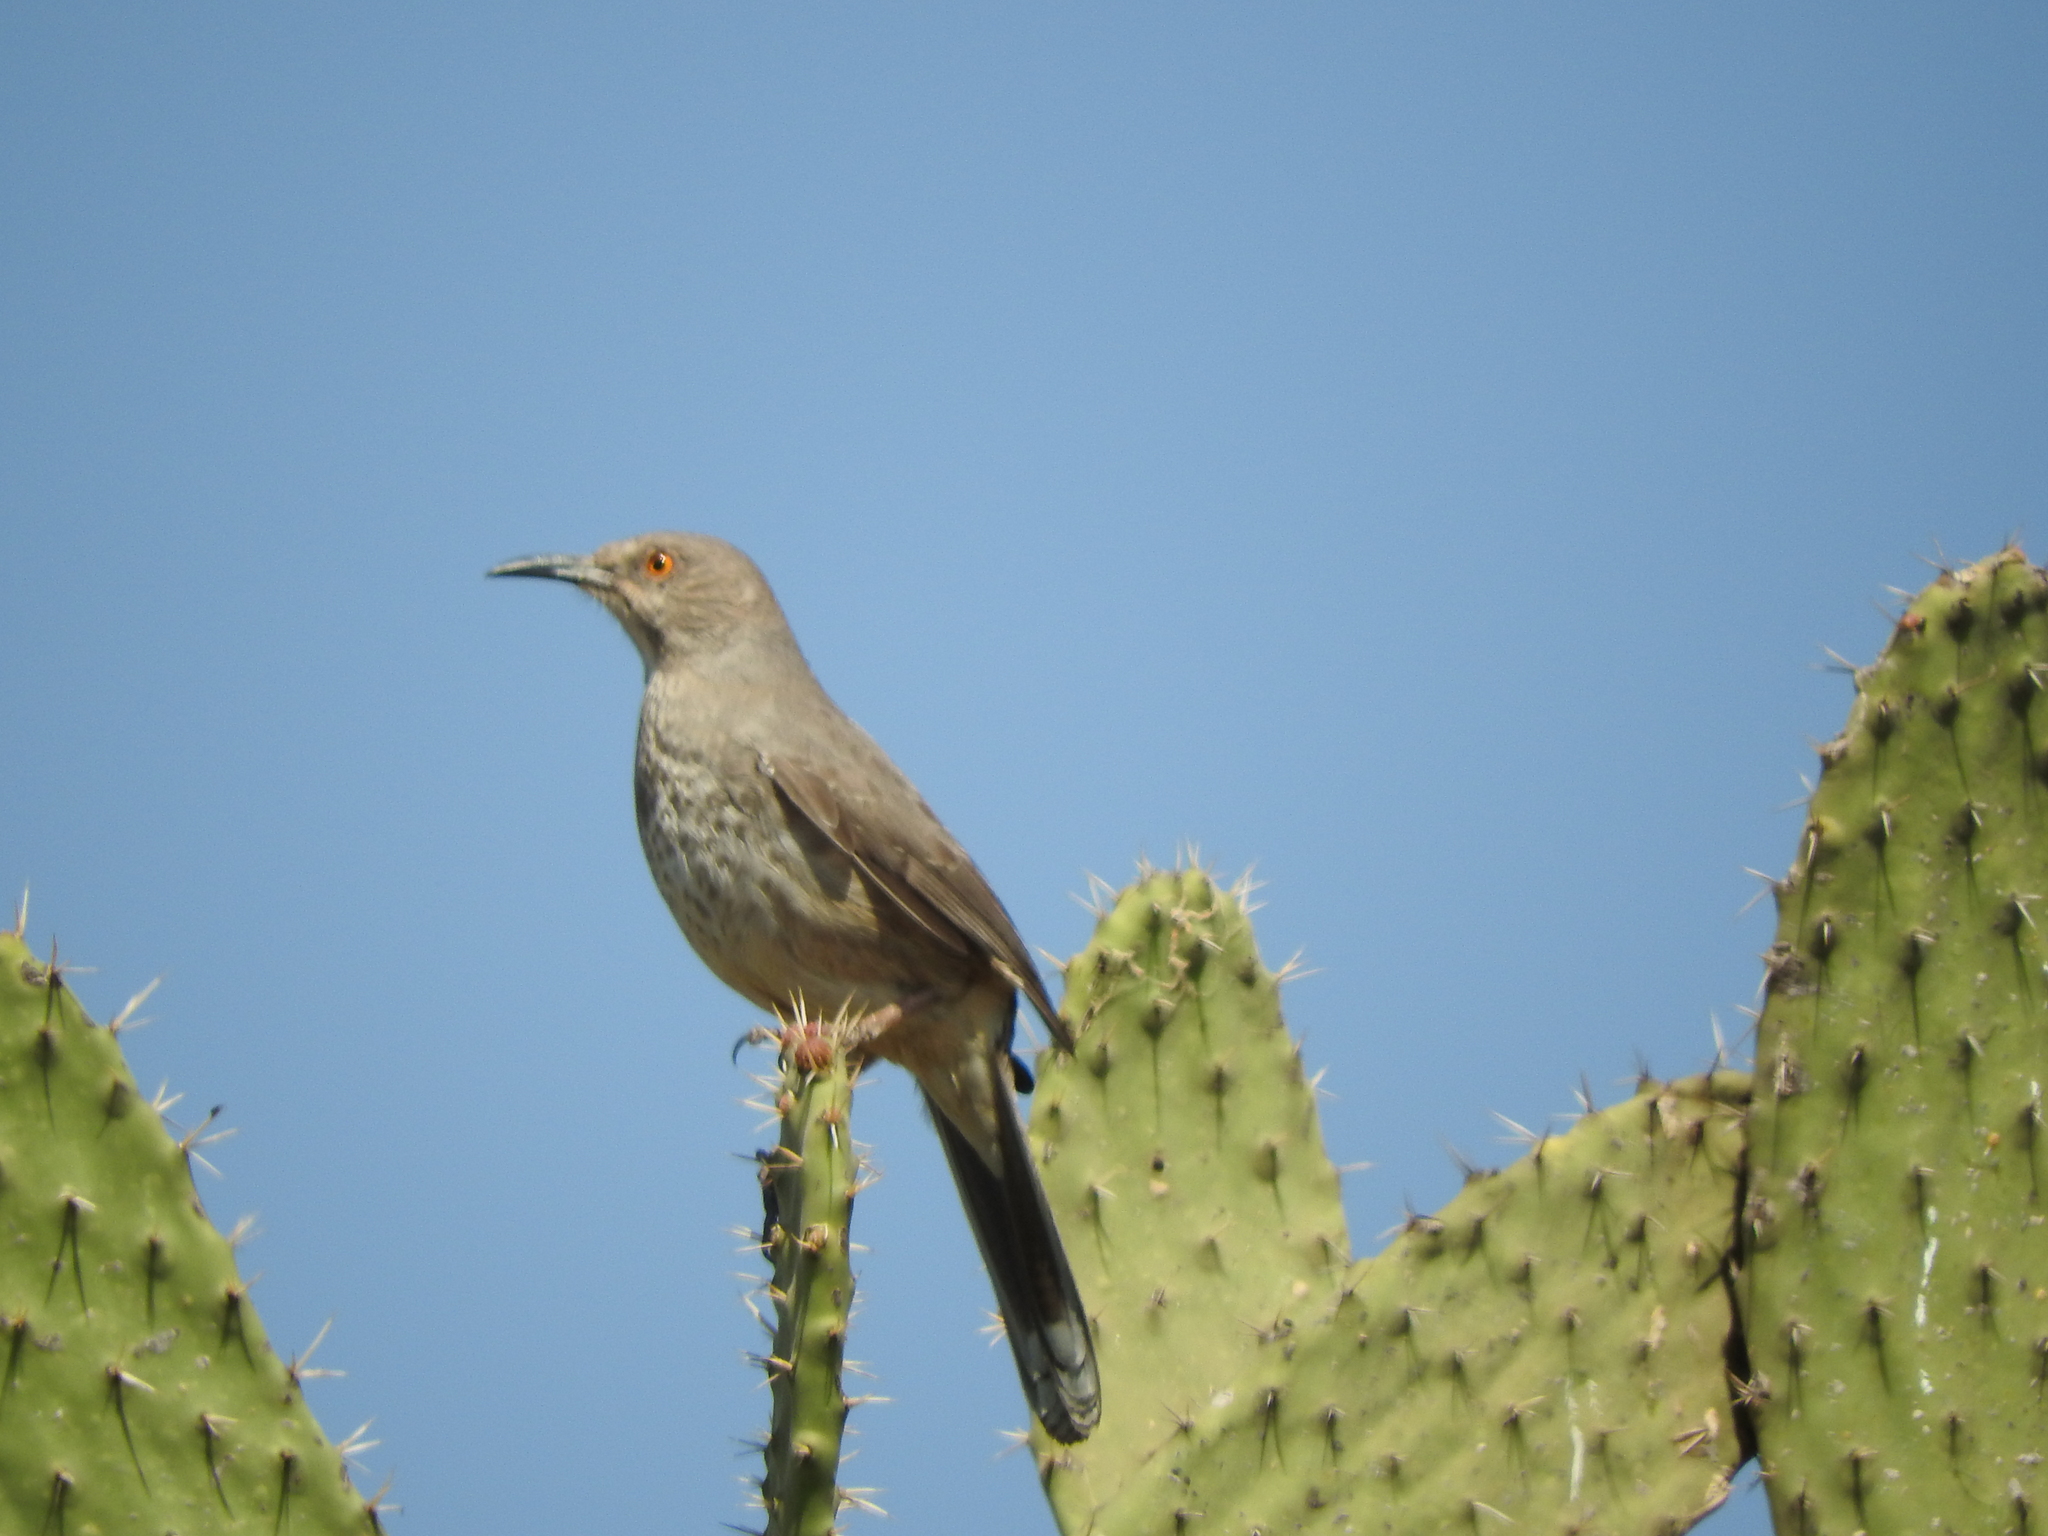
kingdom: Animalia
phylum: Chordata
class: Aves
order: Passeriformes
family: Mimidae
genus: Toxostoma
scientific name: Toxostoma curvirostre
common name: Curve-billed thrasher
